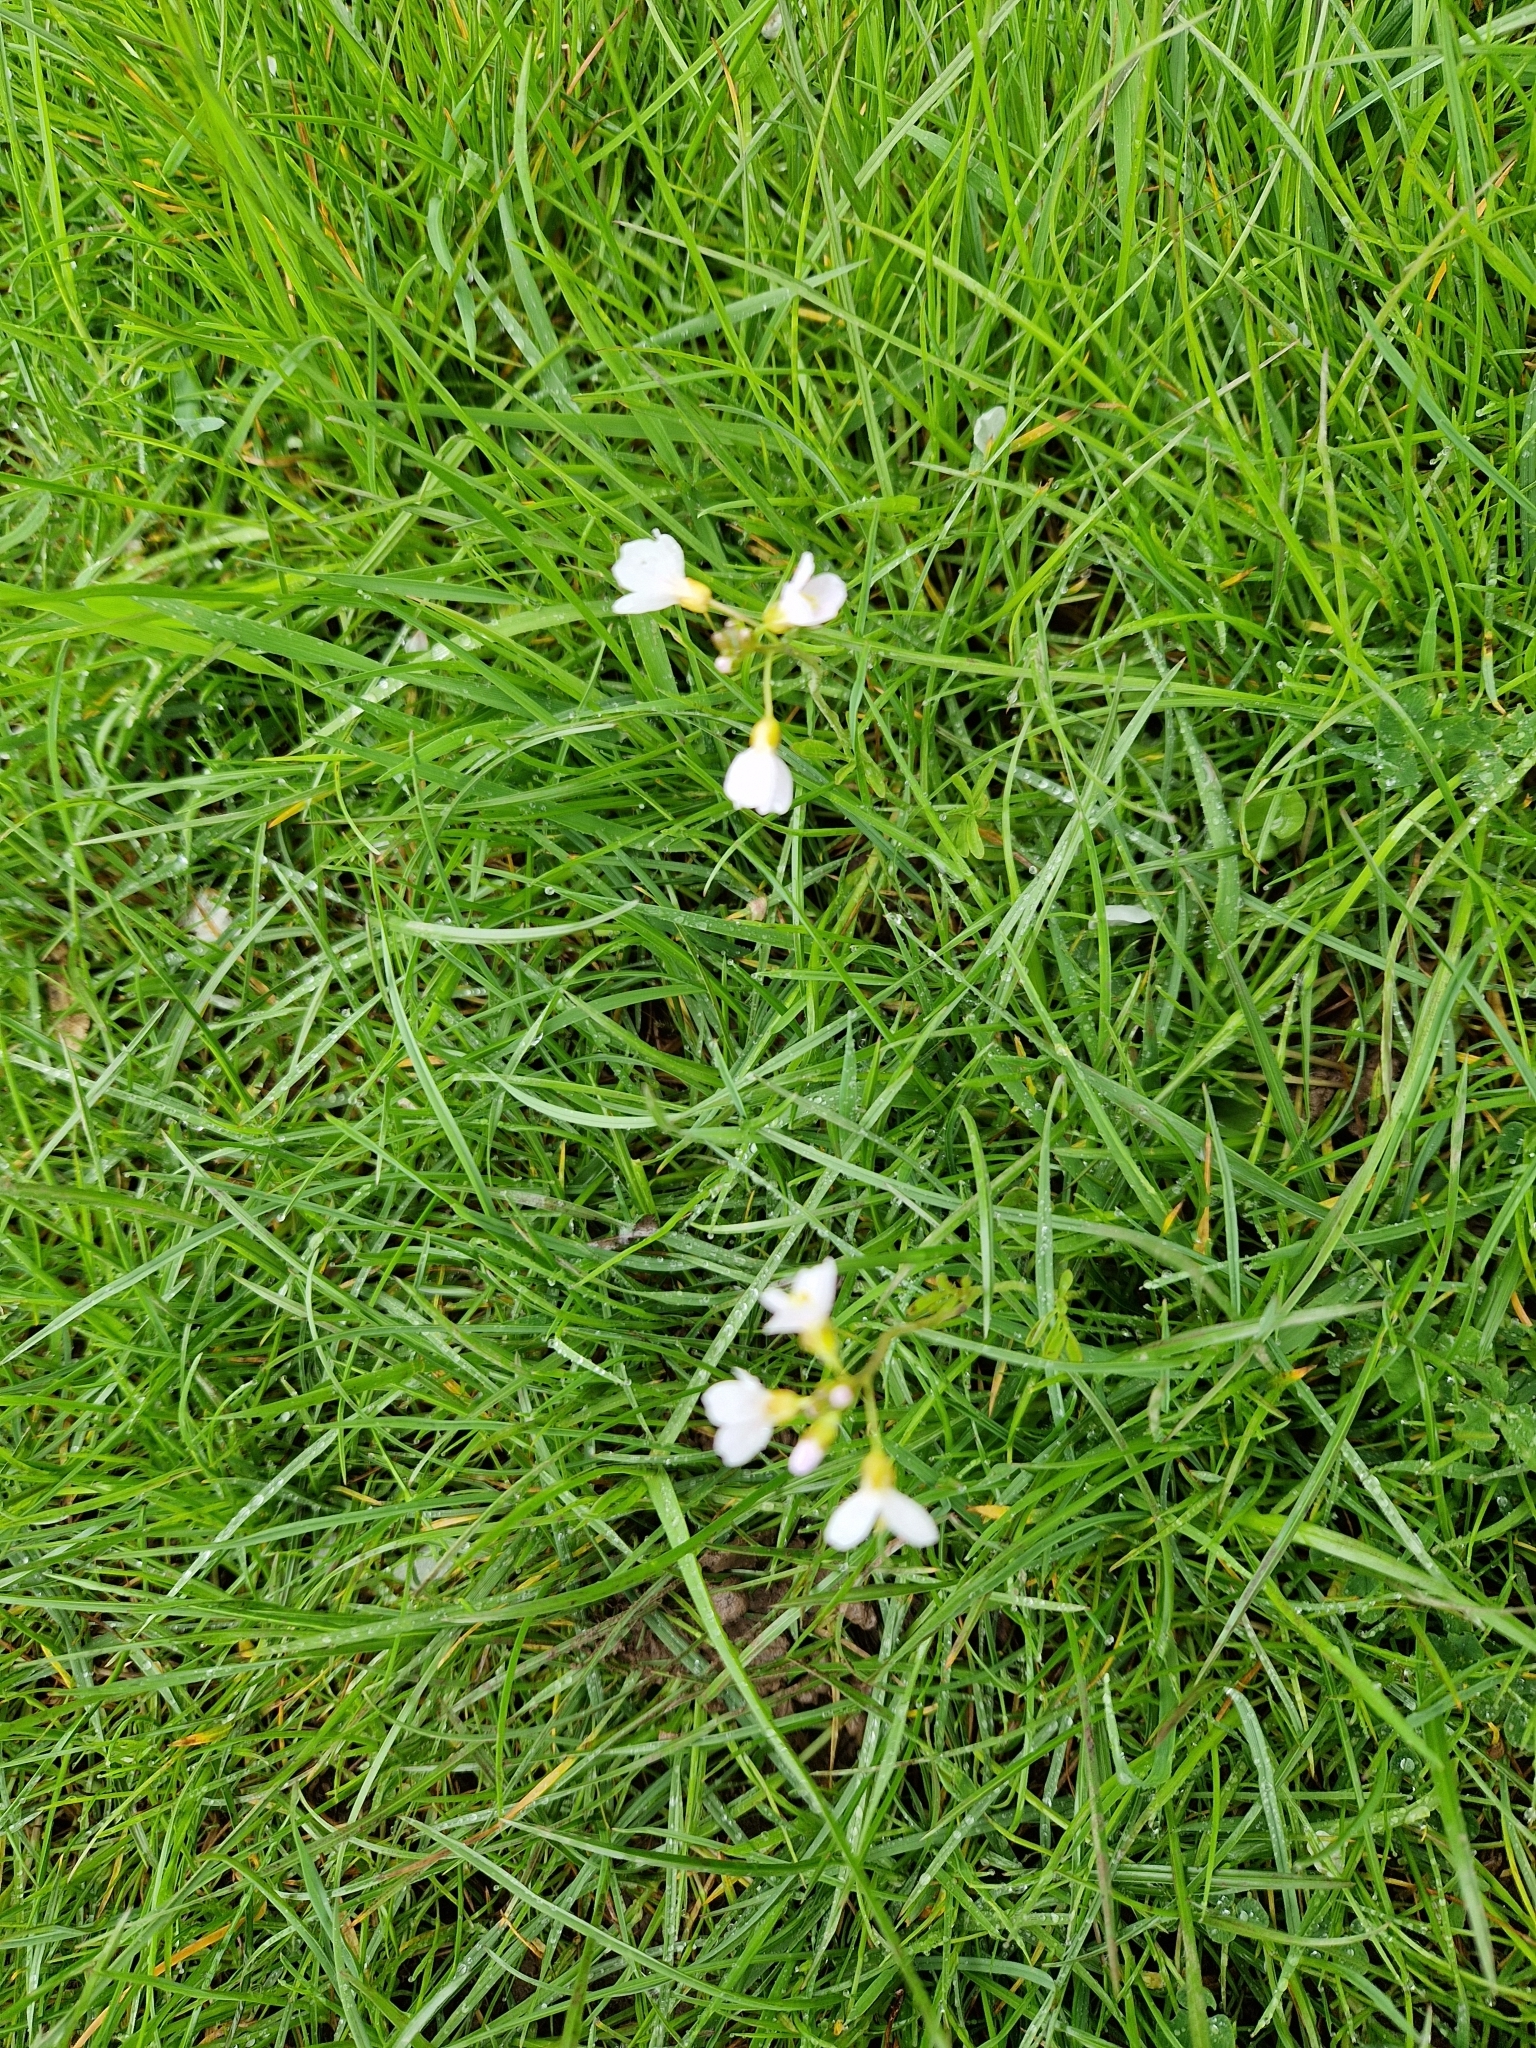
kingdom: Plantae
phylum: Tracheophyta
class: Magnoliopsida
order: Brassicales
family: Brassicaceae
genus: Cardamine
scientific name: Cardamine pratensis
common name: Cuckoo flower
